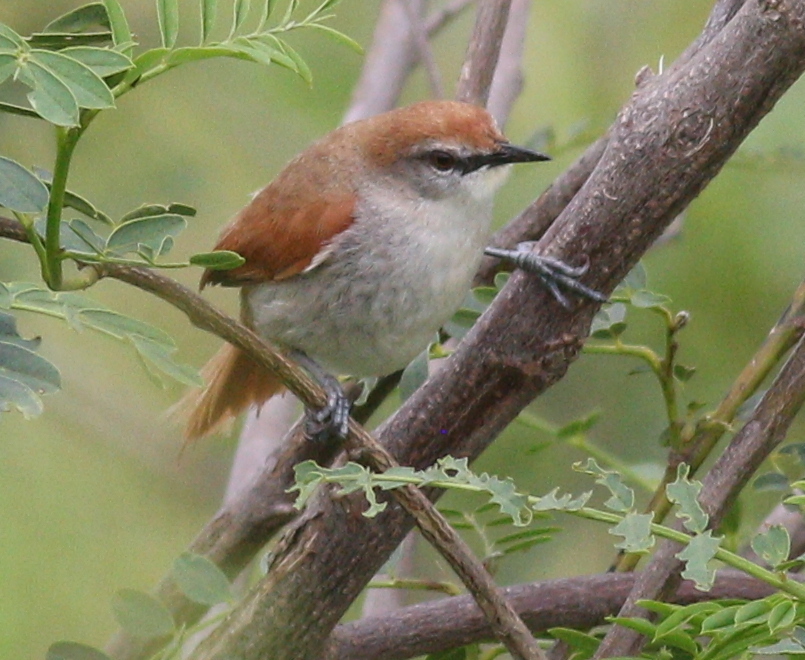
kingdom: Animalia
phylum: Chordata
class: Aves
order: Passeriformes
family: Furnariidae
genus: Certhiaxis
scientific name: Certhiaxis cinnamomeus
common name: Yellow-chinned spinetail
